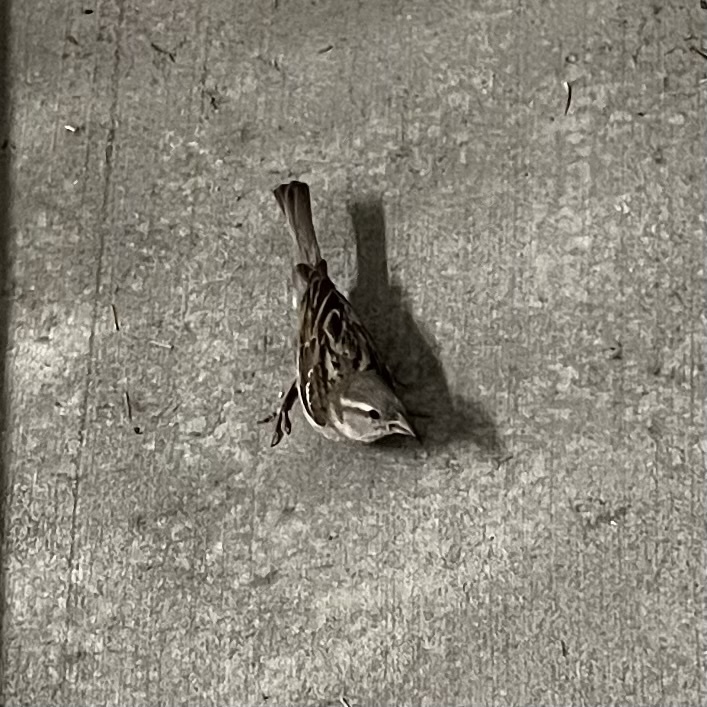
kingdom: Animalia
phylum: Chordata
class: Aves
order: Passeriformes
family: Passeridae
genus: Passer
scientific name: Passer domesticus
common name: House sparrow
